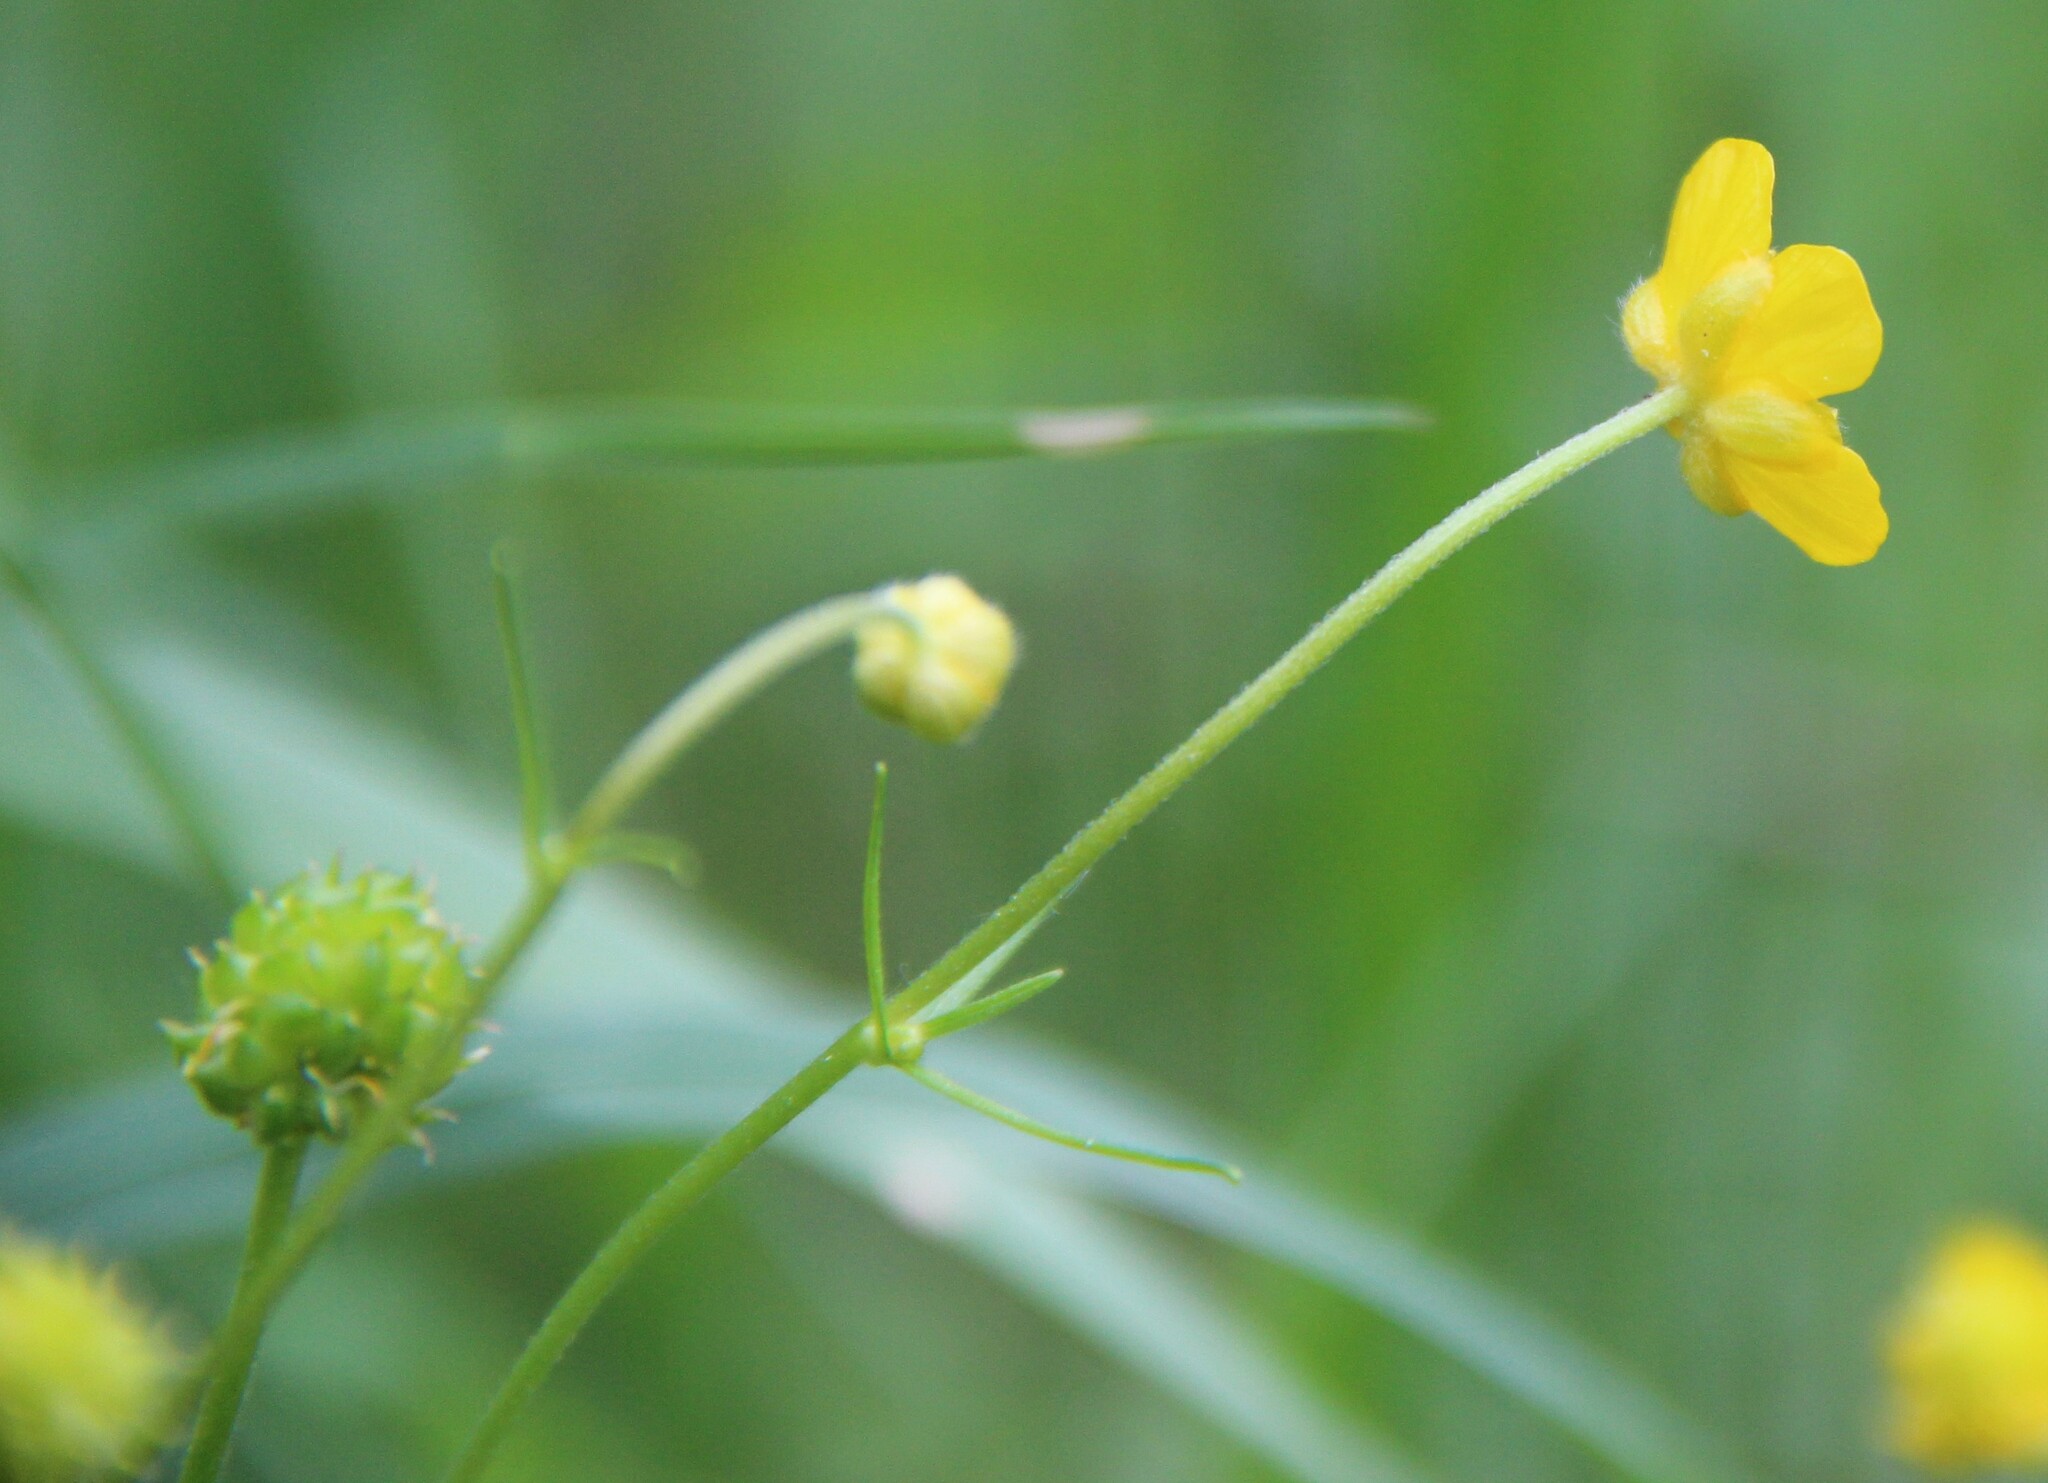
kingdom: Plantae
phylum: Tracheophyta
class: Magnoliopsida
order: Ranunculales
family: Ranunculaceae
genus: Ranunculus
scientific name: Ranunculus auricomus
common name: Goldilocks buttercup
